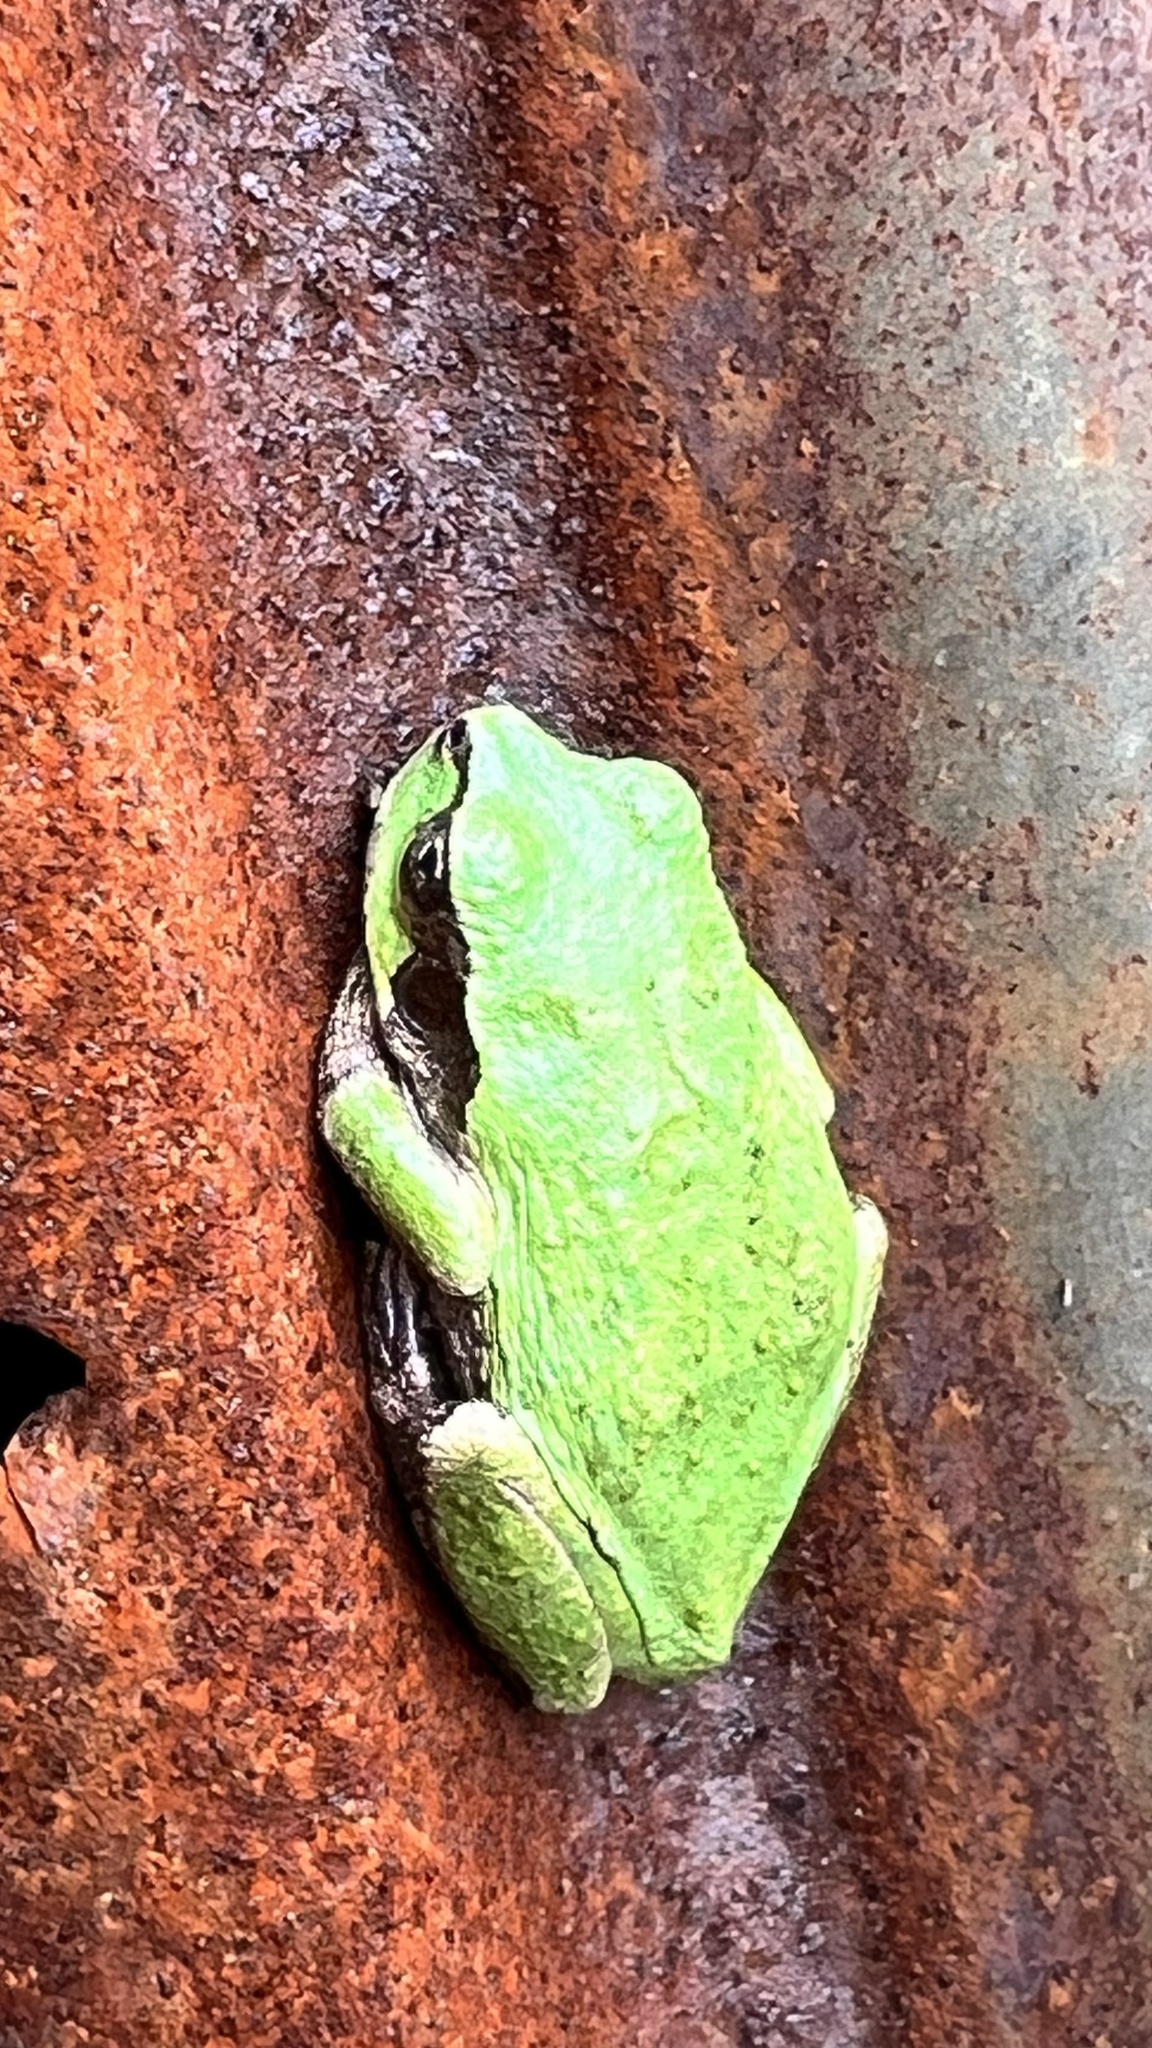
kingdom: Animalia
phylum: Chordata
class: Amphibia
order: Anura
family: Hylidae
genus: Dryophytes
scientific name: Dryophytes japonicus
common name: Japanese treefrog
